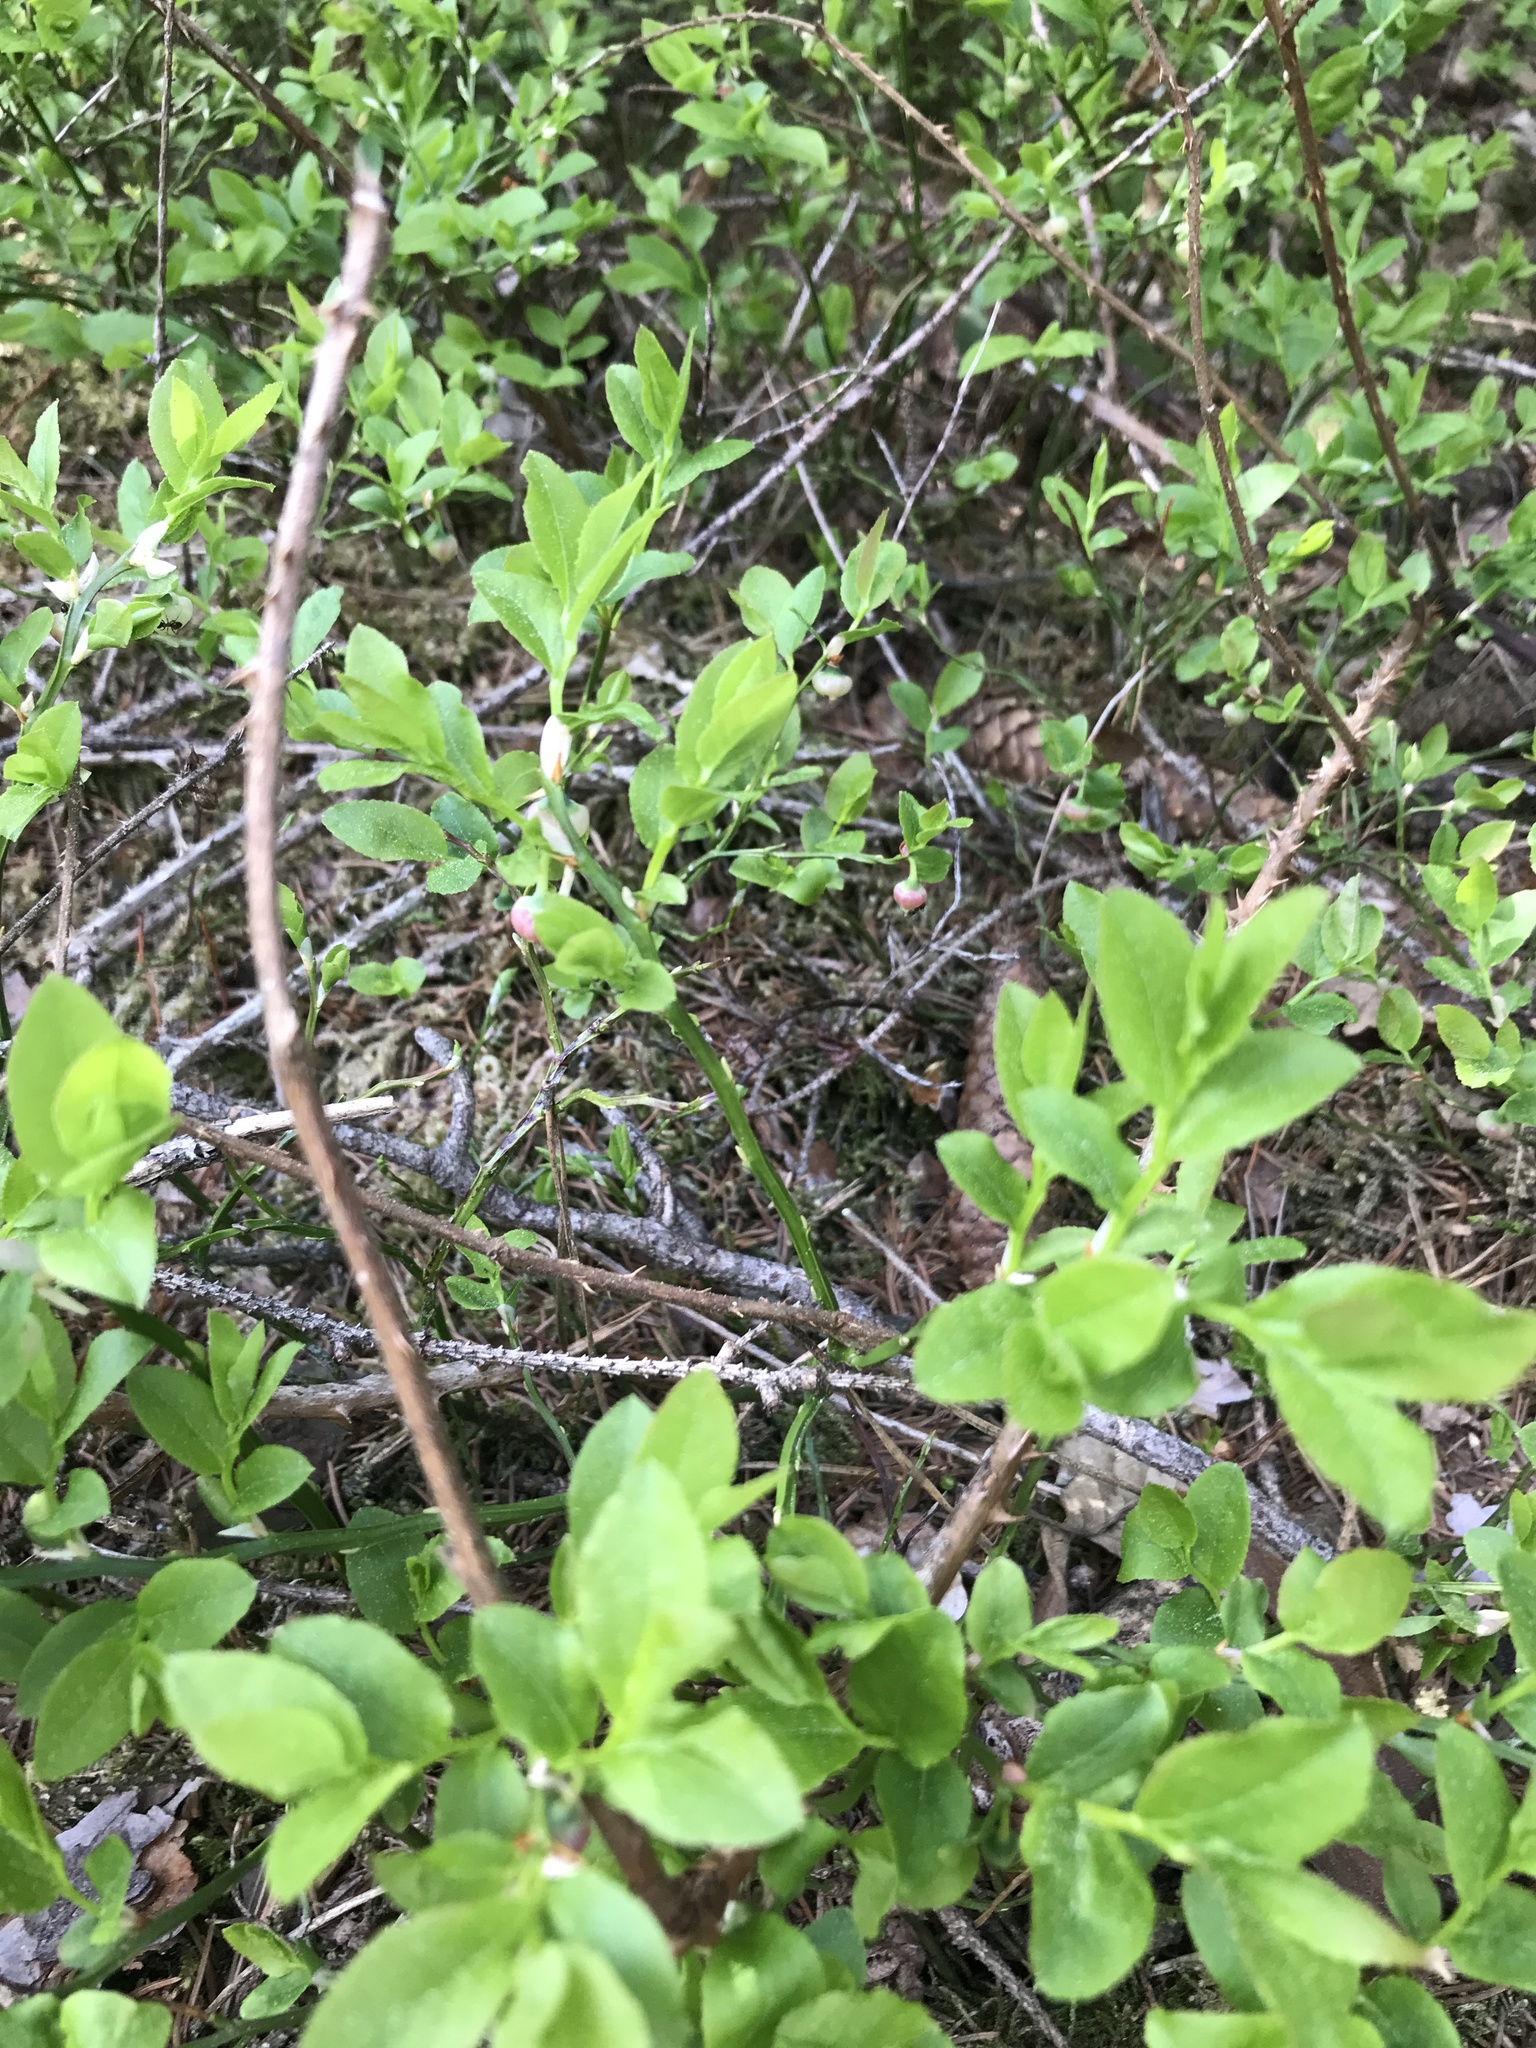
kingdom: Plantae
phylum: Tracheophyta
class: Magnoliopsida
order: Ericales
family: Ericaceae
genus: Vaccinium
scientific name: Vaccinium myrtillus
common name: Bilberry
